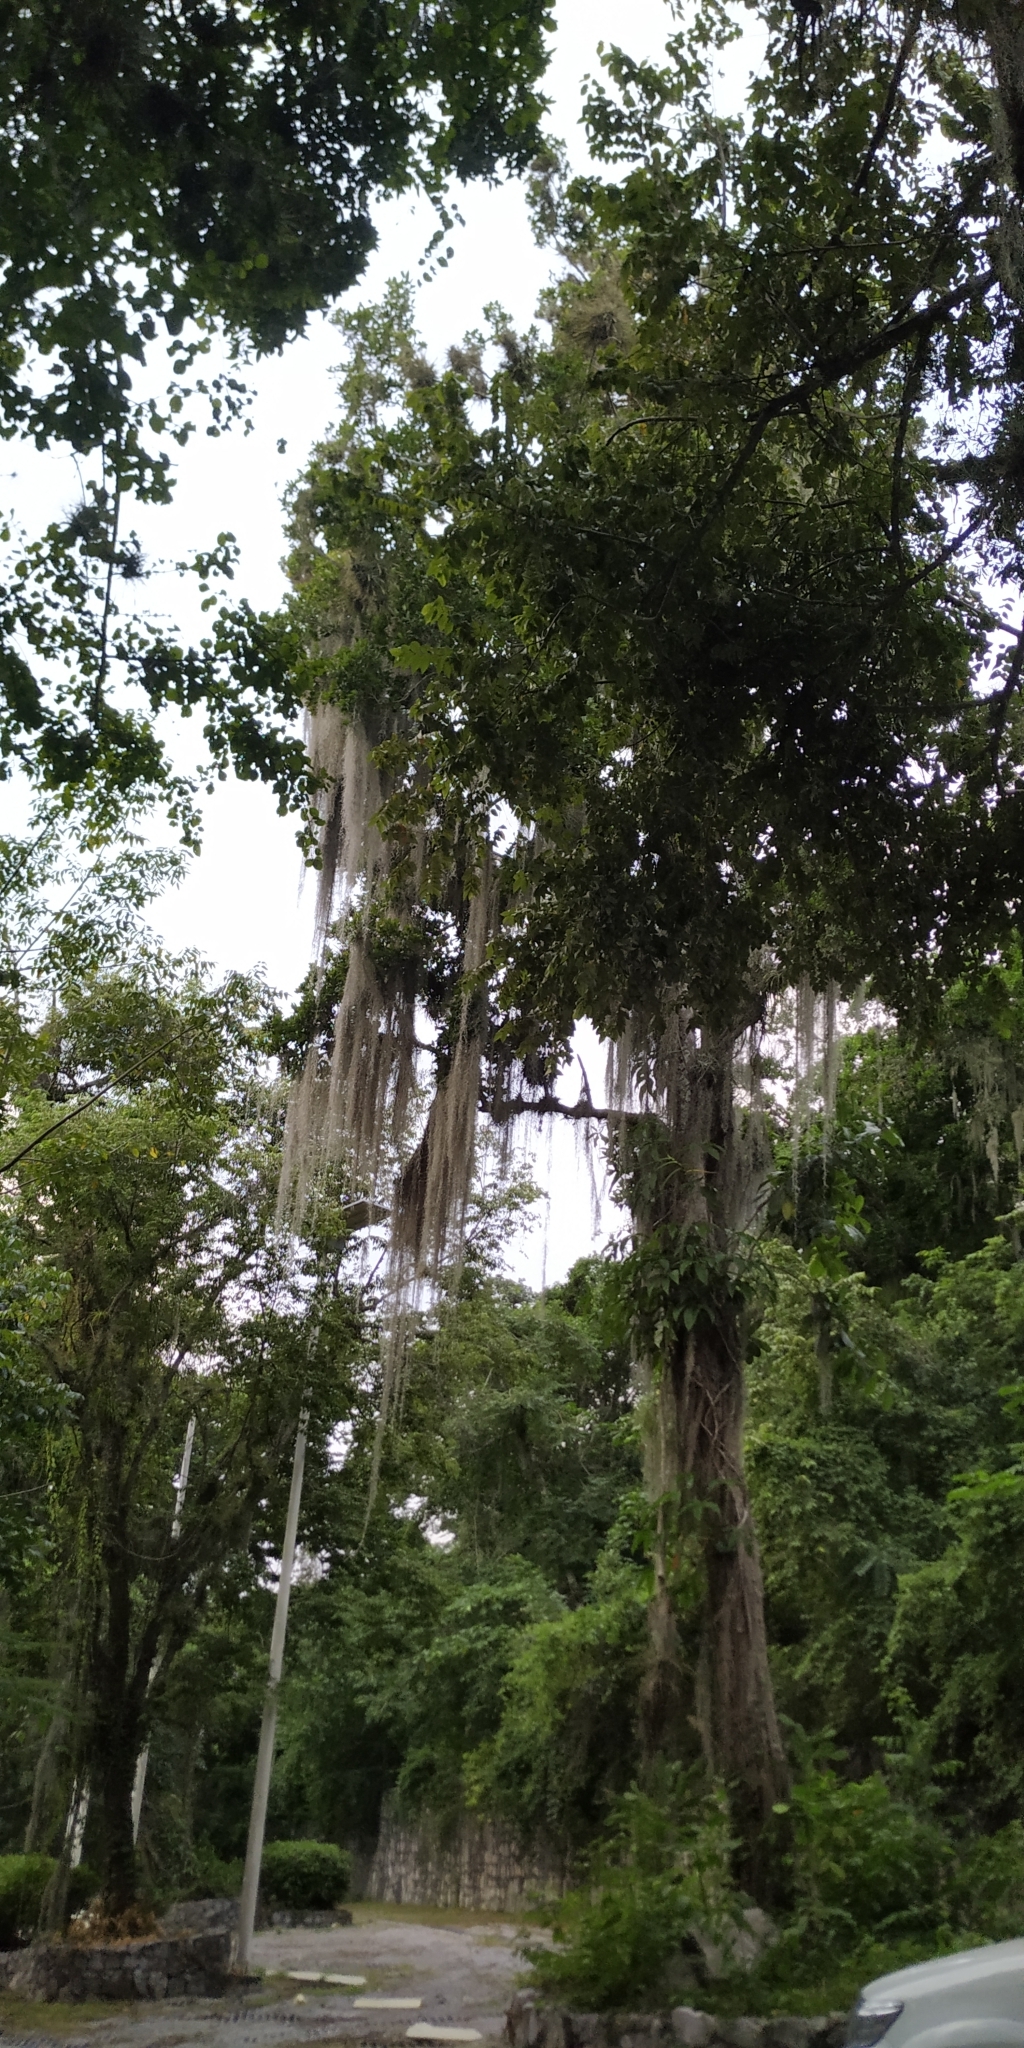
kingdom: Plantae
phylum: Tracheophyta
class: Liliopsida
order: Poales
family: Bromeliaceae
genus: Tillandsia
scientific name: Tillandsia usneoides
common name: Spanish moss
